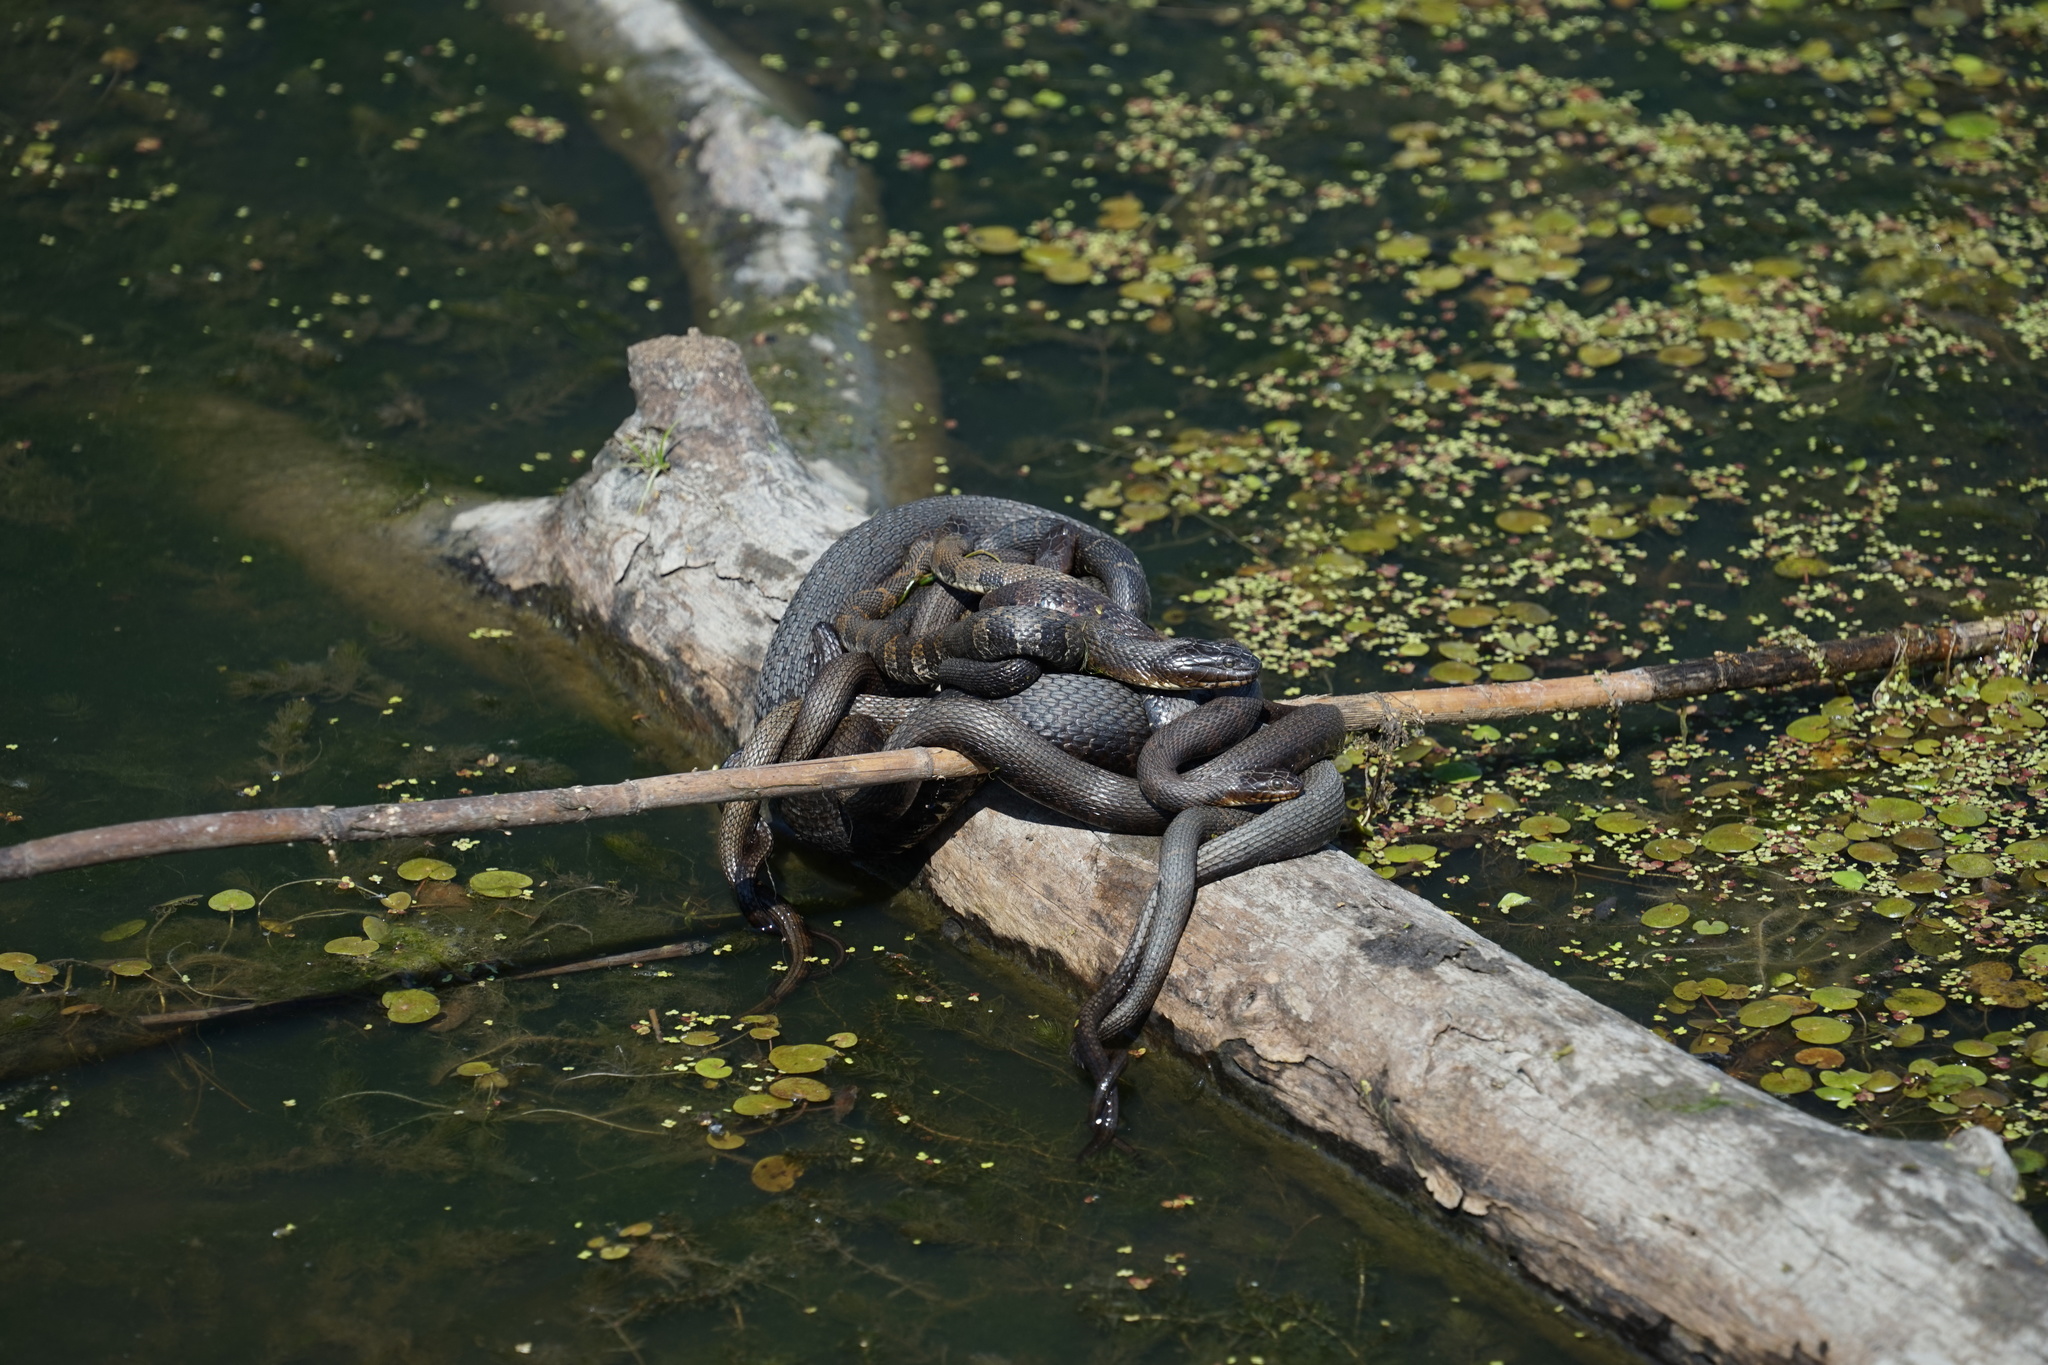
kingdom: Animalia
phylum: Chordata
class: Squamata
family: Colubridae
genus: Nerodia
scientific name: Nerodia sipedon
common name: Northern water snake
